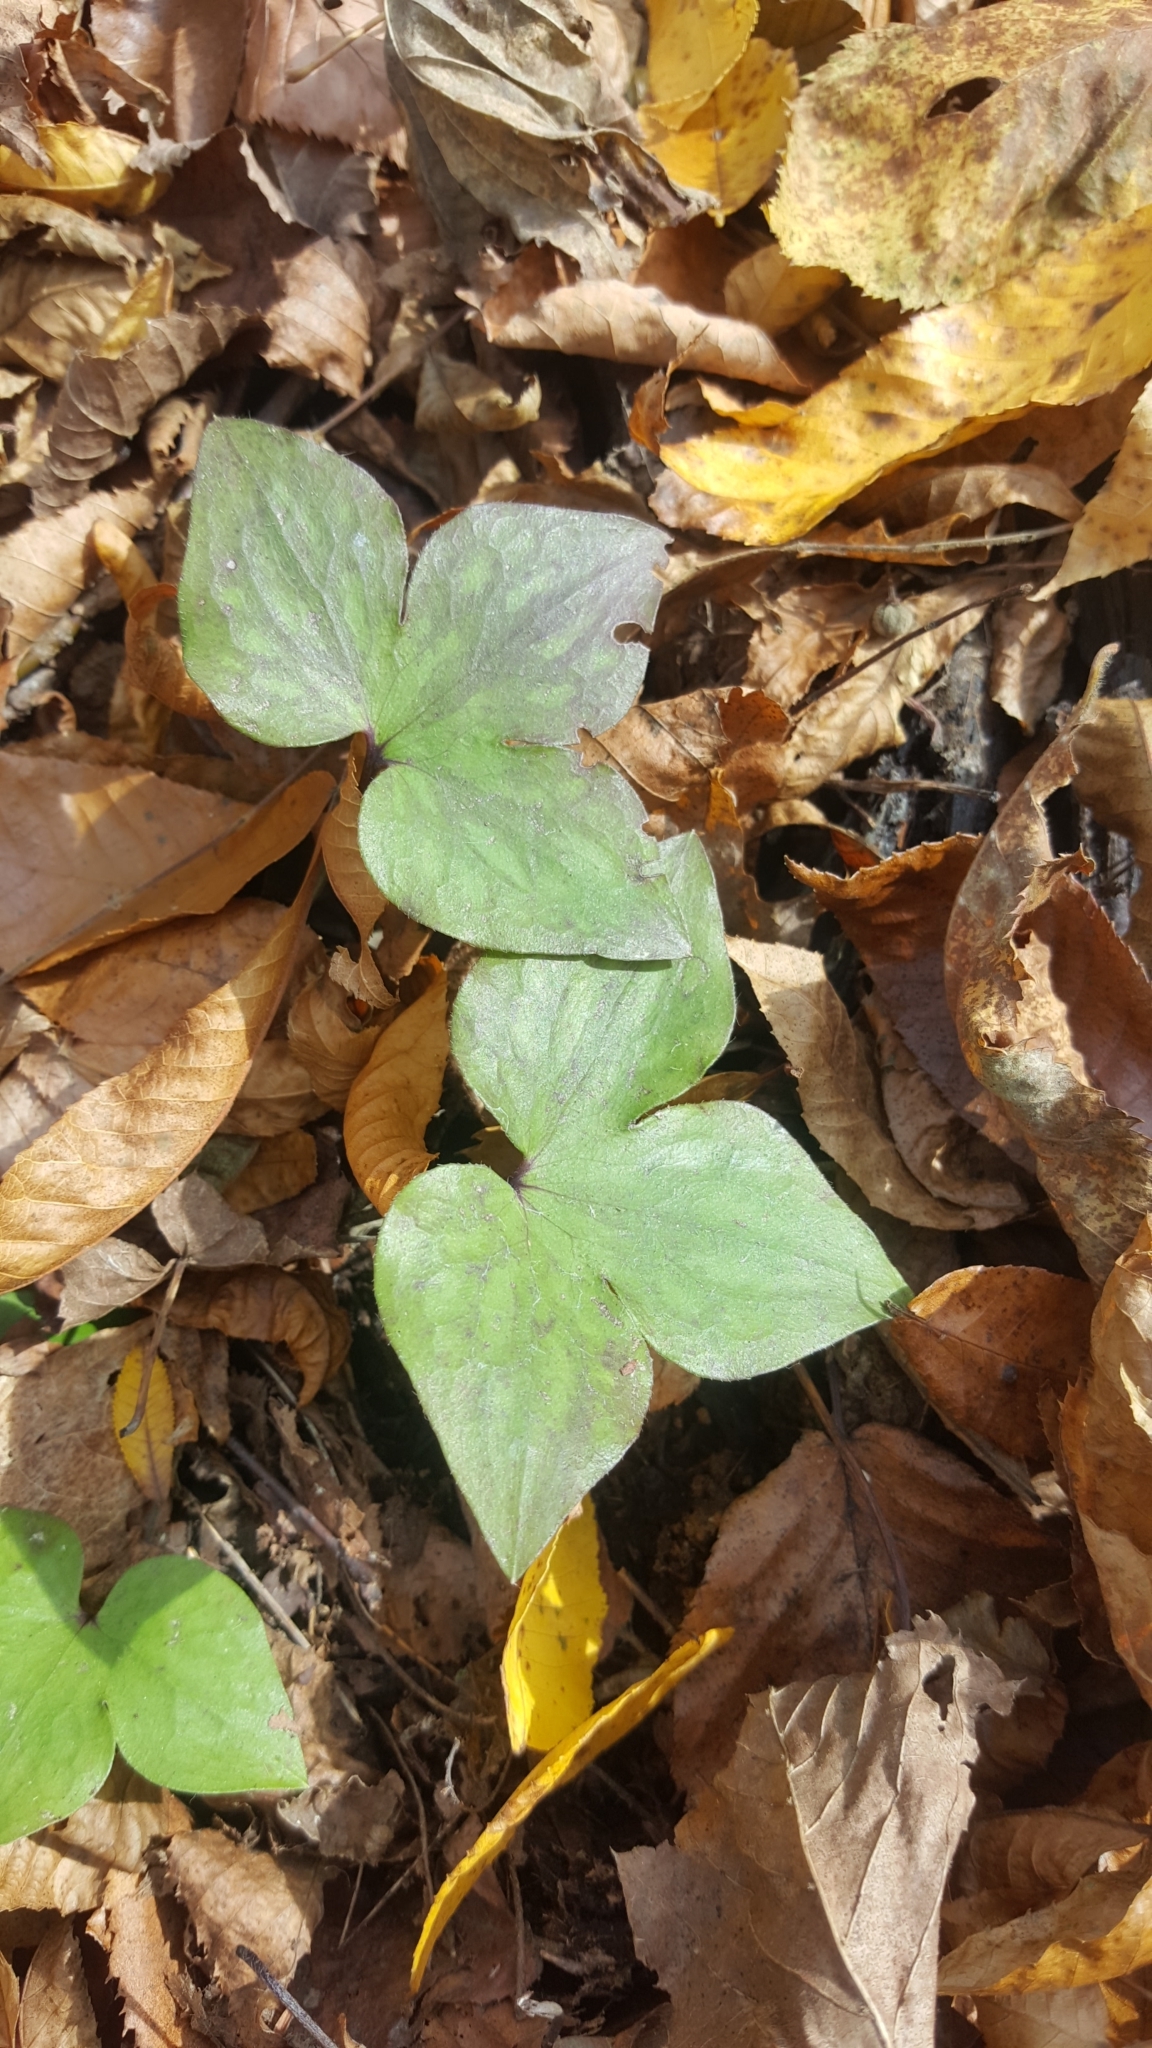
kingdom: Plantae
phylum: Tracheophyta
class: Magnoliopsida
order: Ranunculales
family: Ranunculaceae
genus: Hepatica
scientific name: Hepatica acutiloba
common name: Sharp-lobed hepatica
